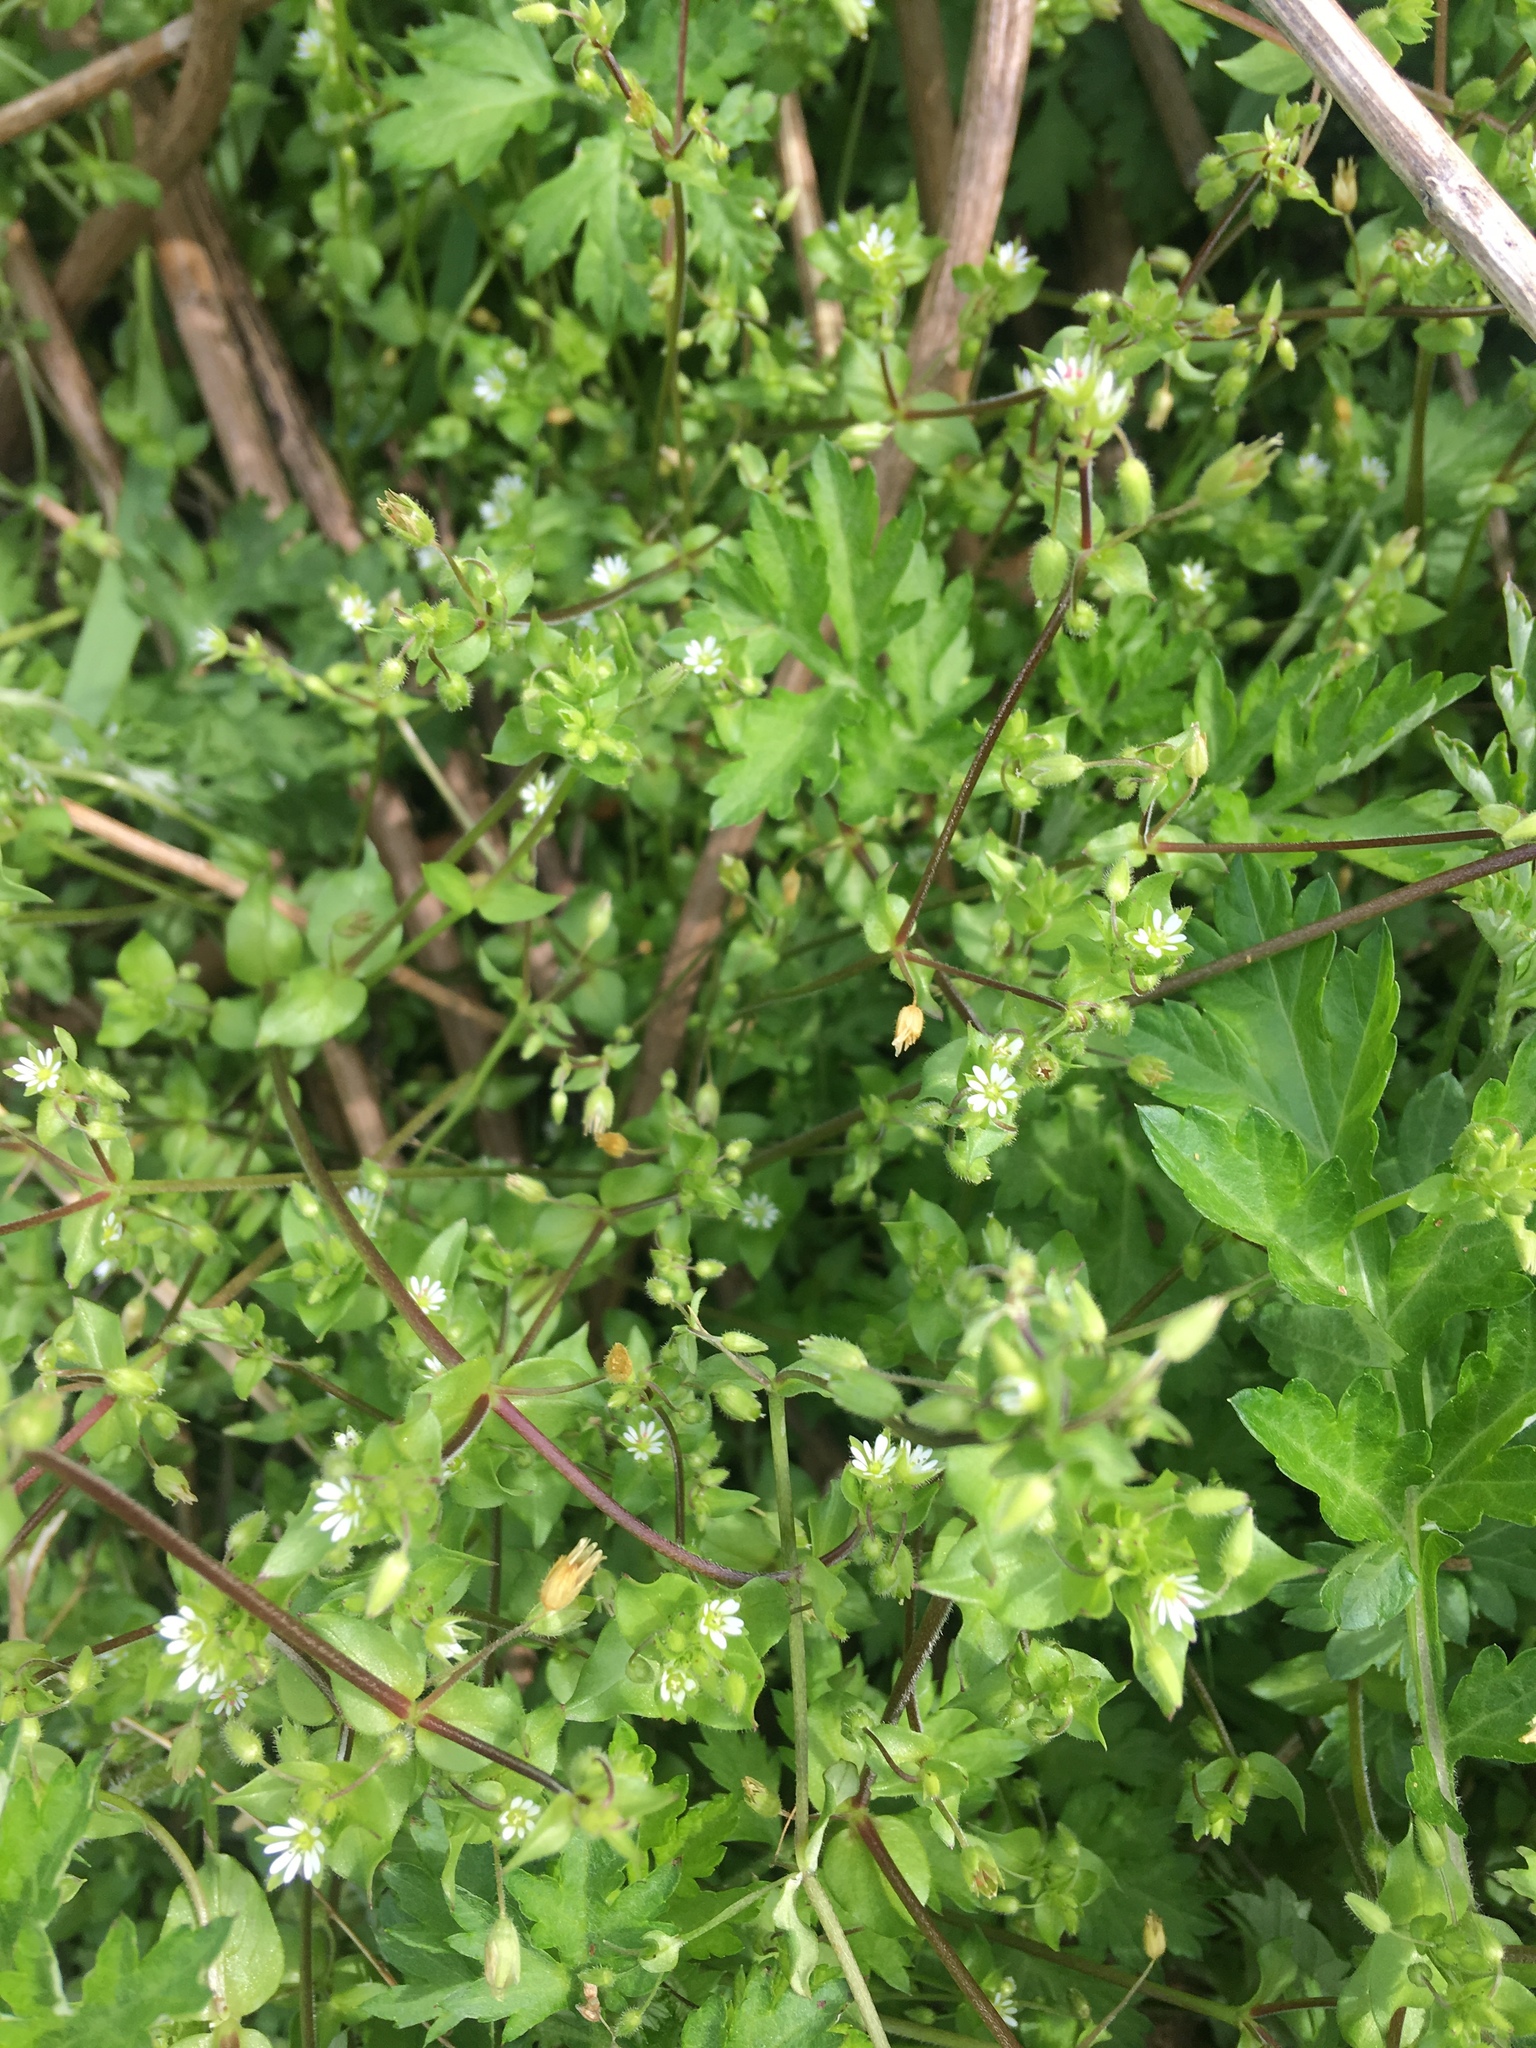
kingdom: Plantae
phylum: Tracheophyta
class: Magnoliopsida
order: Caryophyllales
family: Caryophyllaceae
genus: Stellaria
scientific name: Stellaria media
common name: Common chickweed
